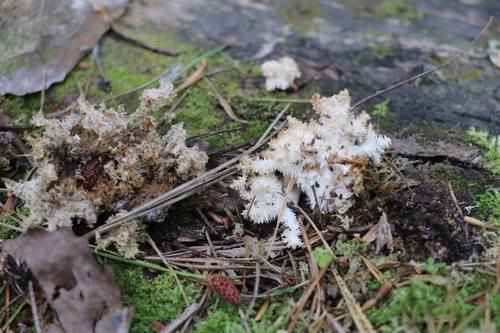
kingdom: Fungi
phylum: Basidiomycota
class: Agaricomycetes
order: Russulales
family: Hericiaceae
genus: Hericium
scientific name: Hericium coralloides
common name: Coral tooth
